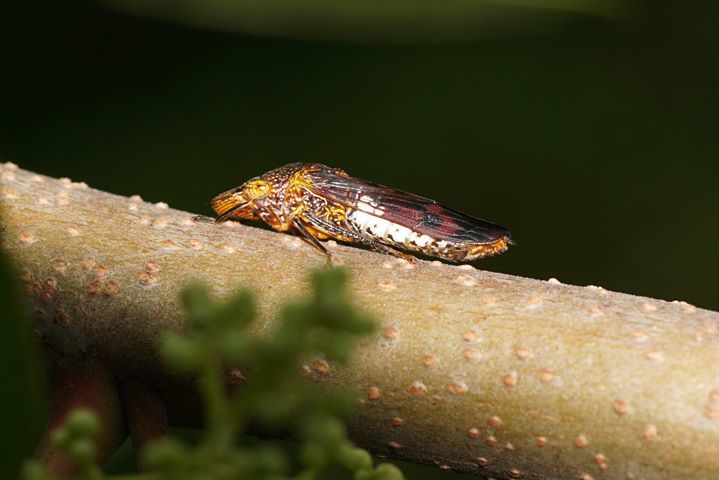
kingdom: Animalia
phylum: Arthropoda
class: Insecta
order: Hemiptera
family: Cicadellidae
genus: Homalodisca
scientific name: Homalodisca vitripennis
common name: Glassy-winged sharpshooter
